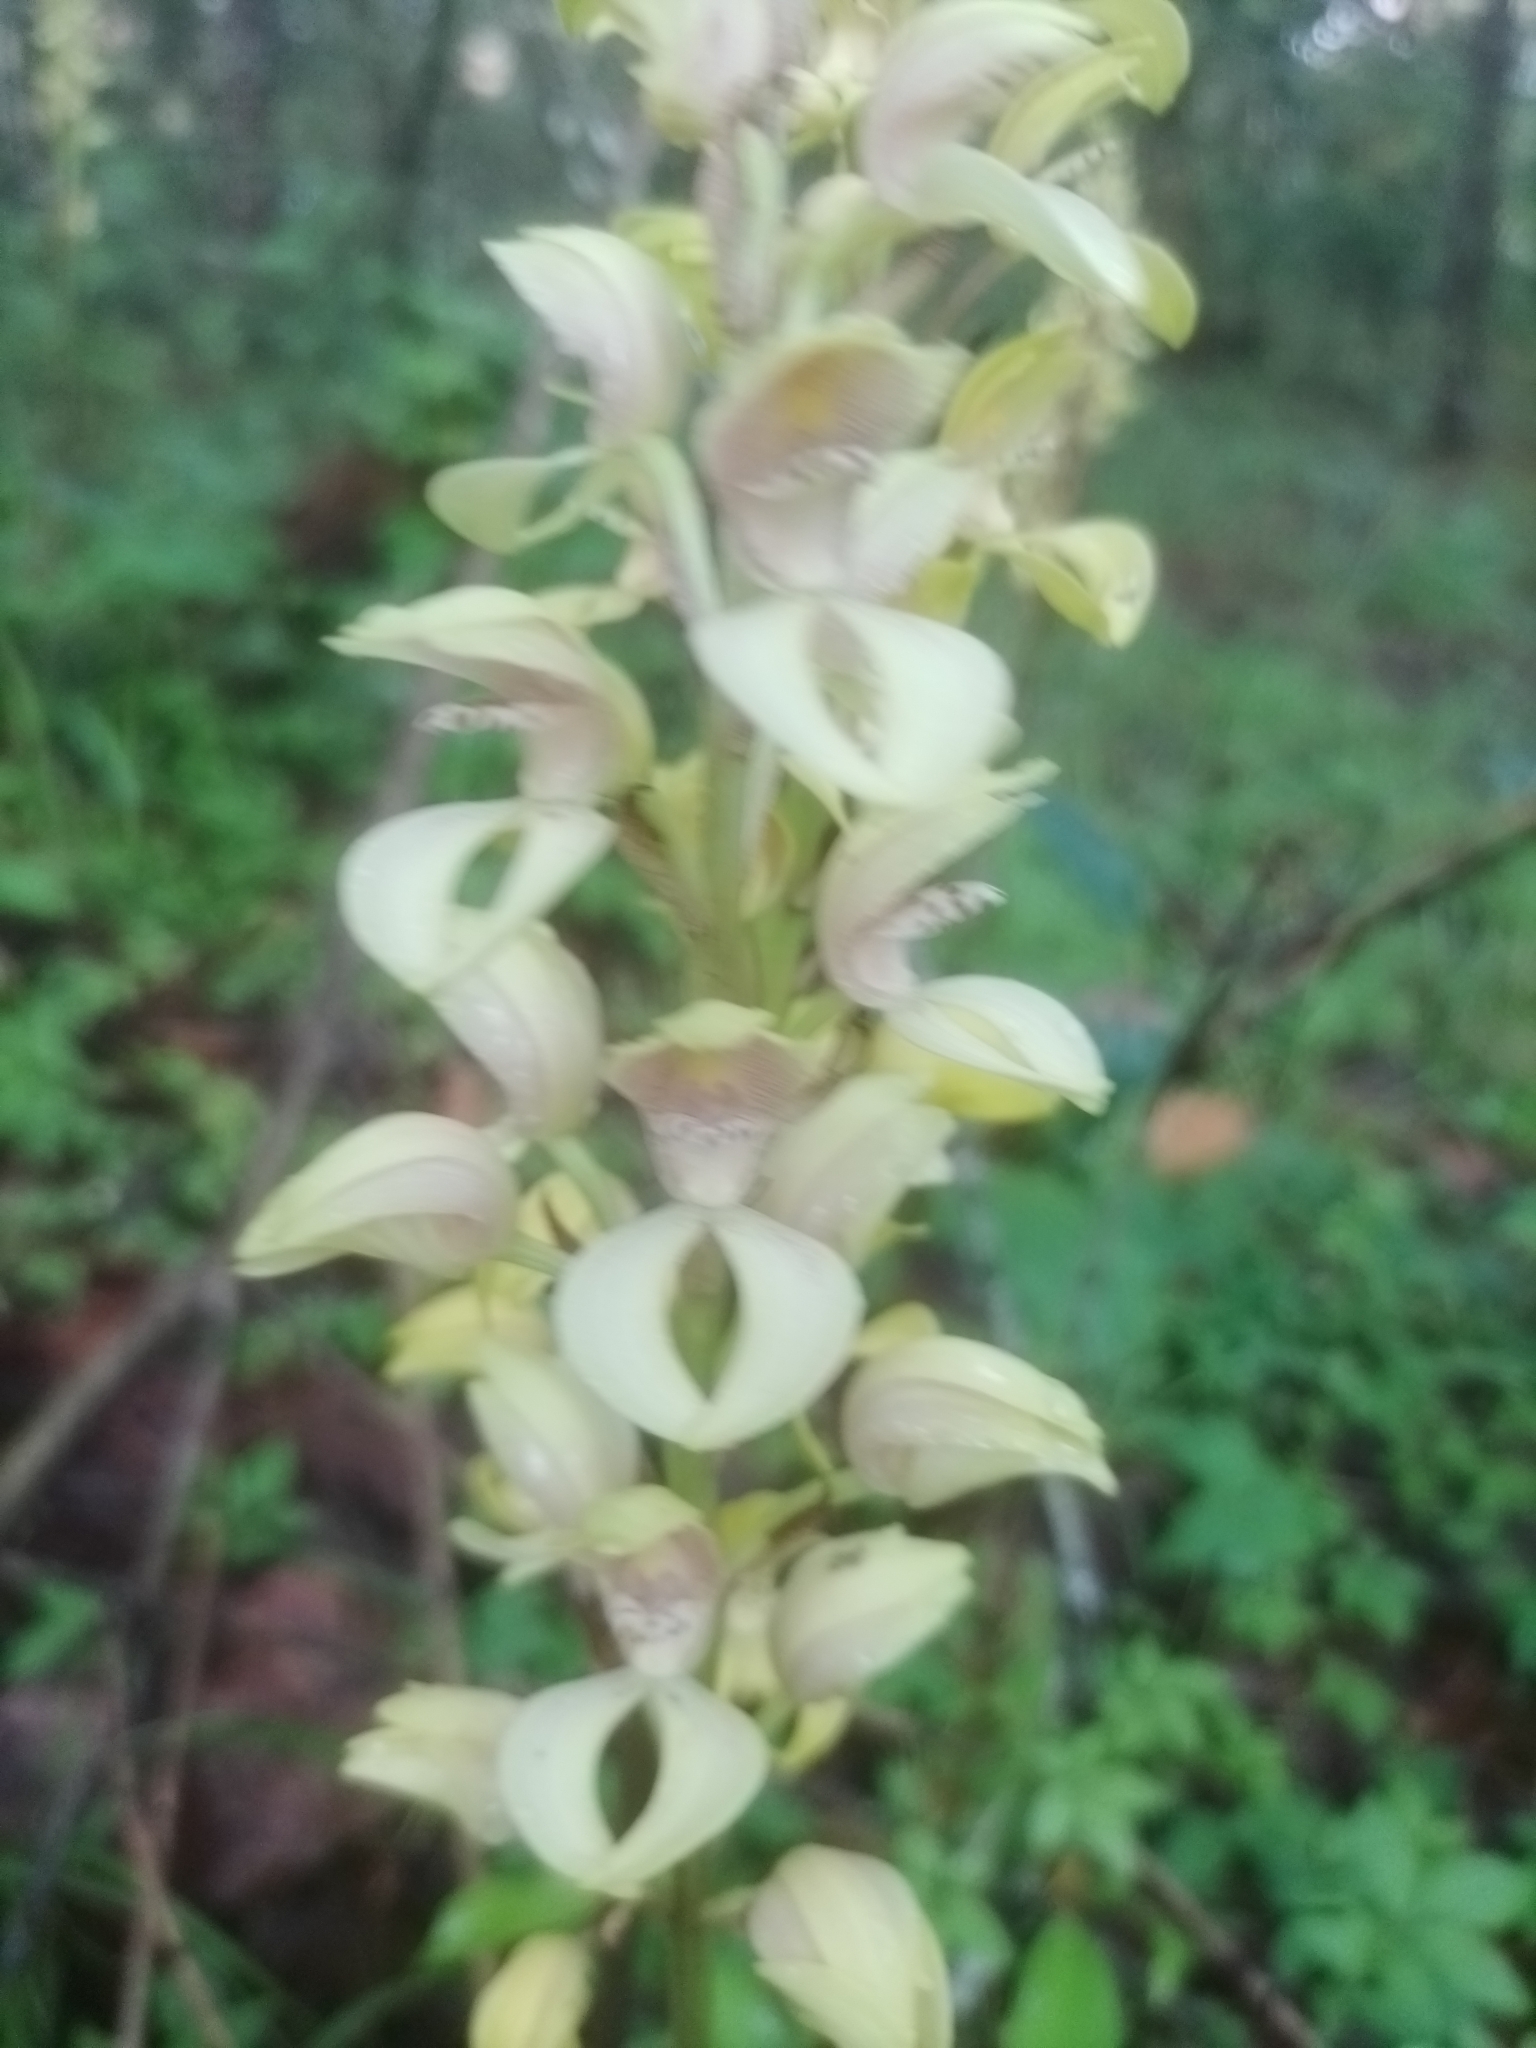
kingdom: Plantae
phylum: Tracheophyta
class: Liliopsida
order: Asparagales
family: Orchidaceae
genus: Govenia
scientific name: Govenia superba
